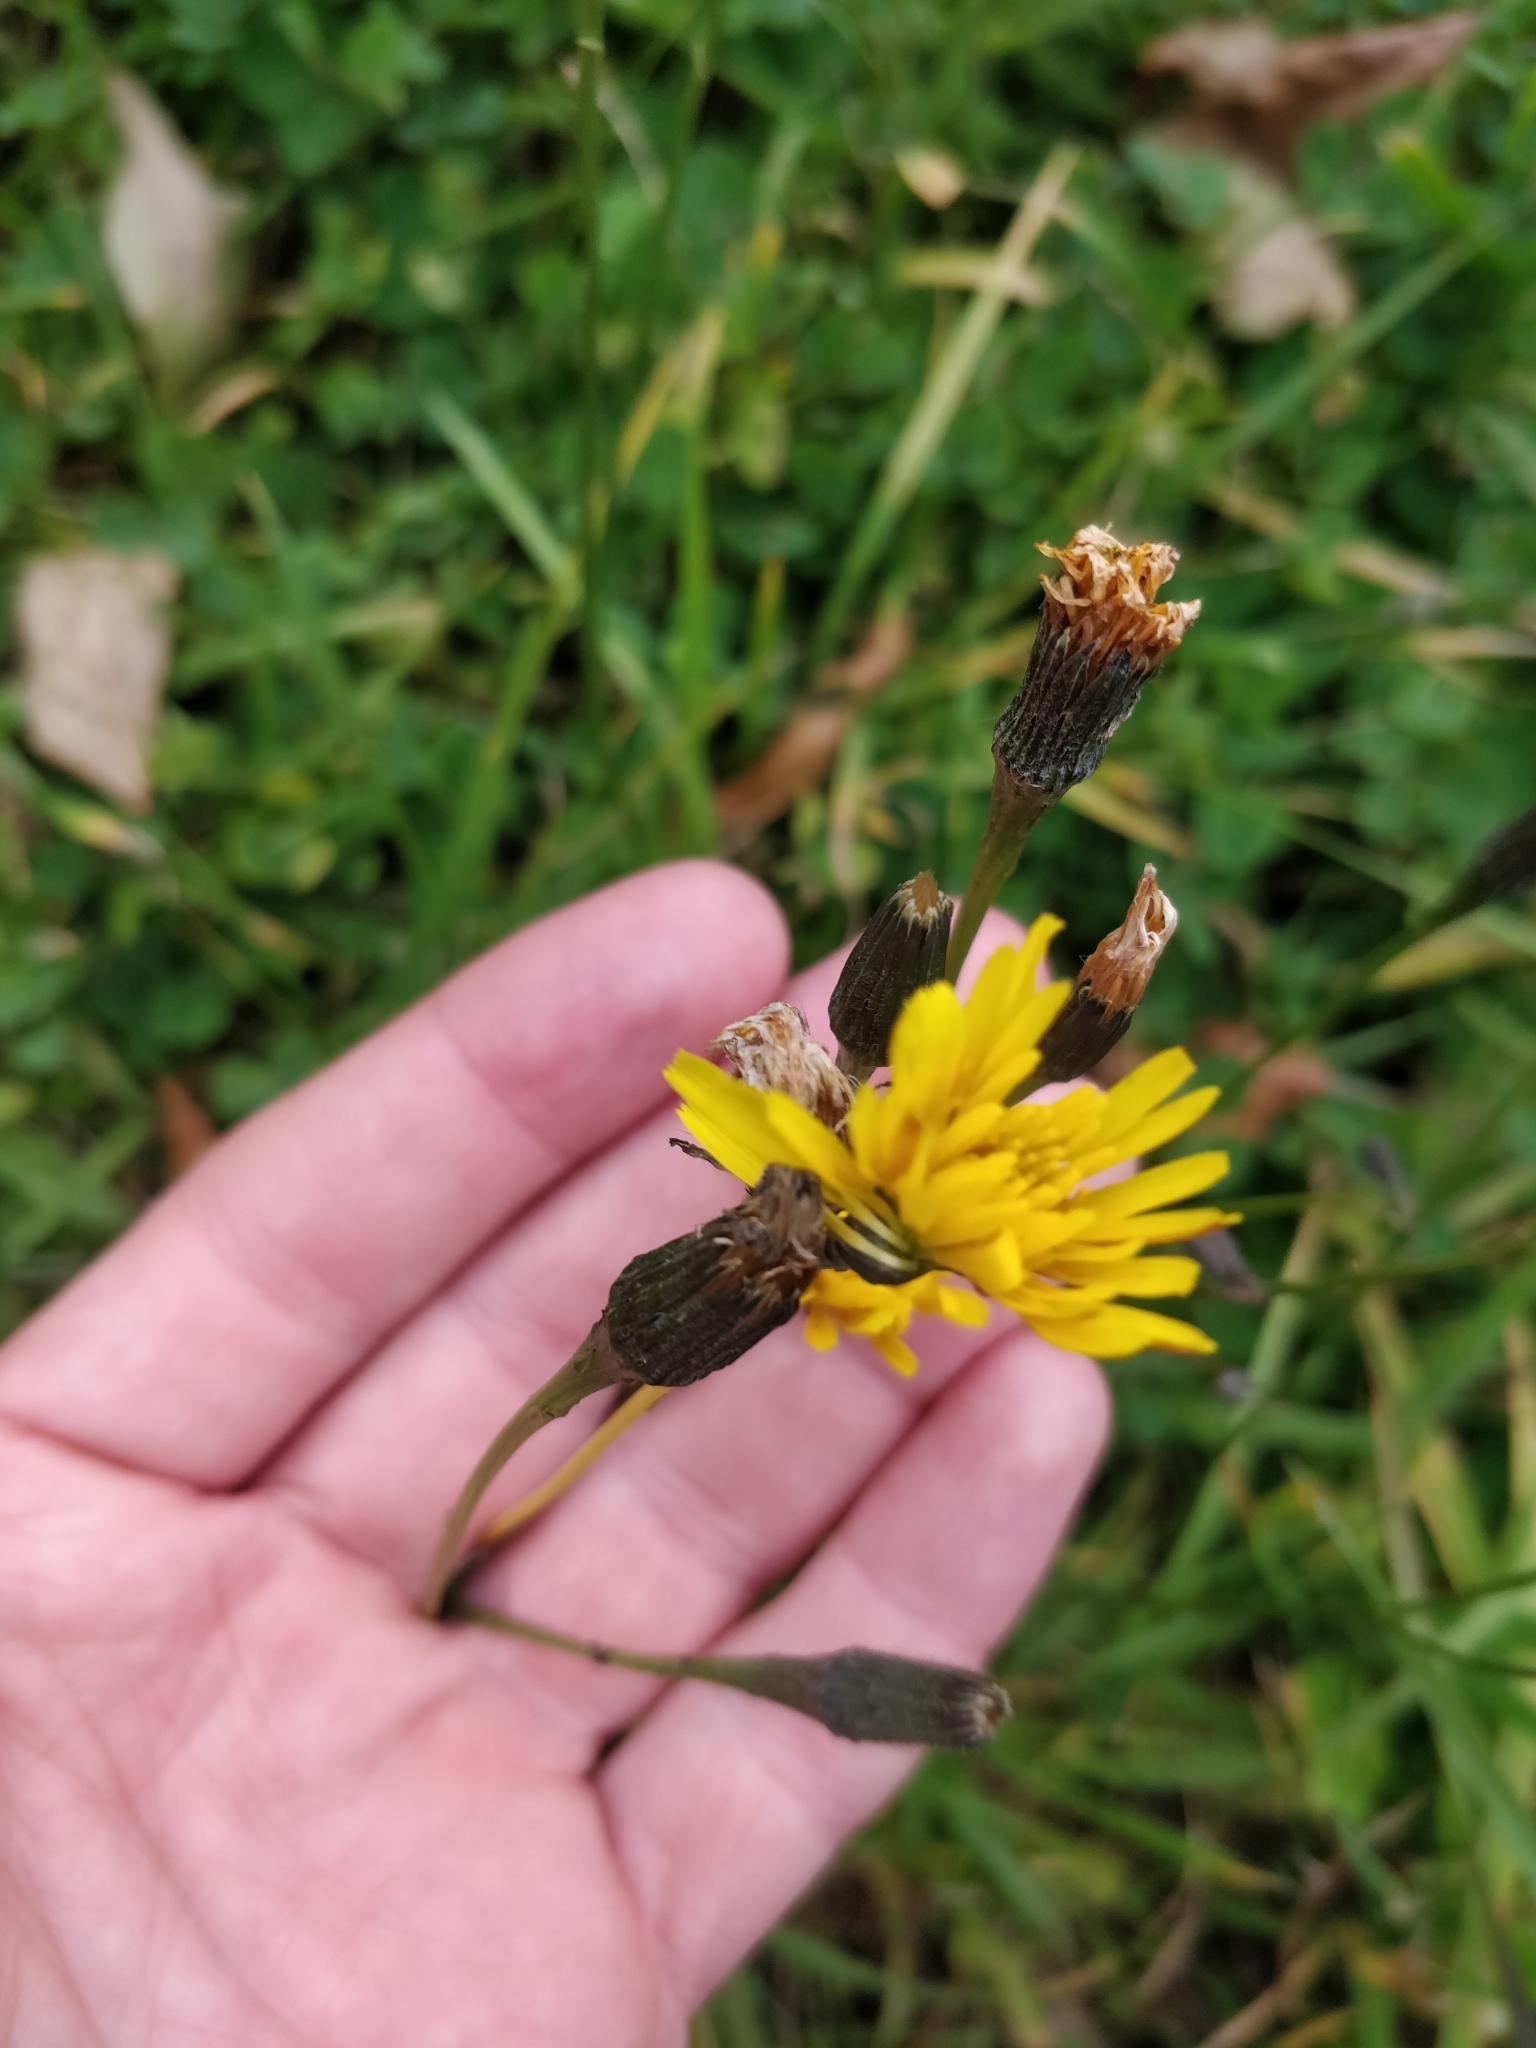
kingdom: Plantae
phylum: Tracheophyta
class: Magnoliopsida
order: Asterales
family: Asteraceae
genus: Scorzoneroides
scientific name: Scorzoneroides autumnalis
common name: Autumn hawkbit
